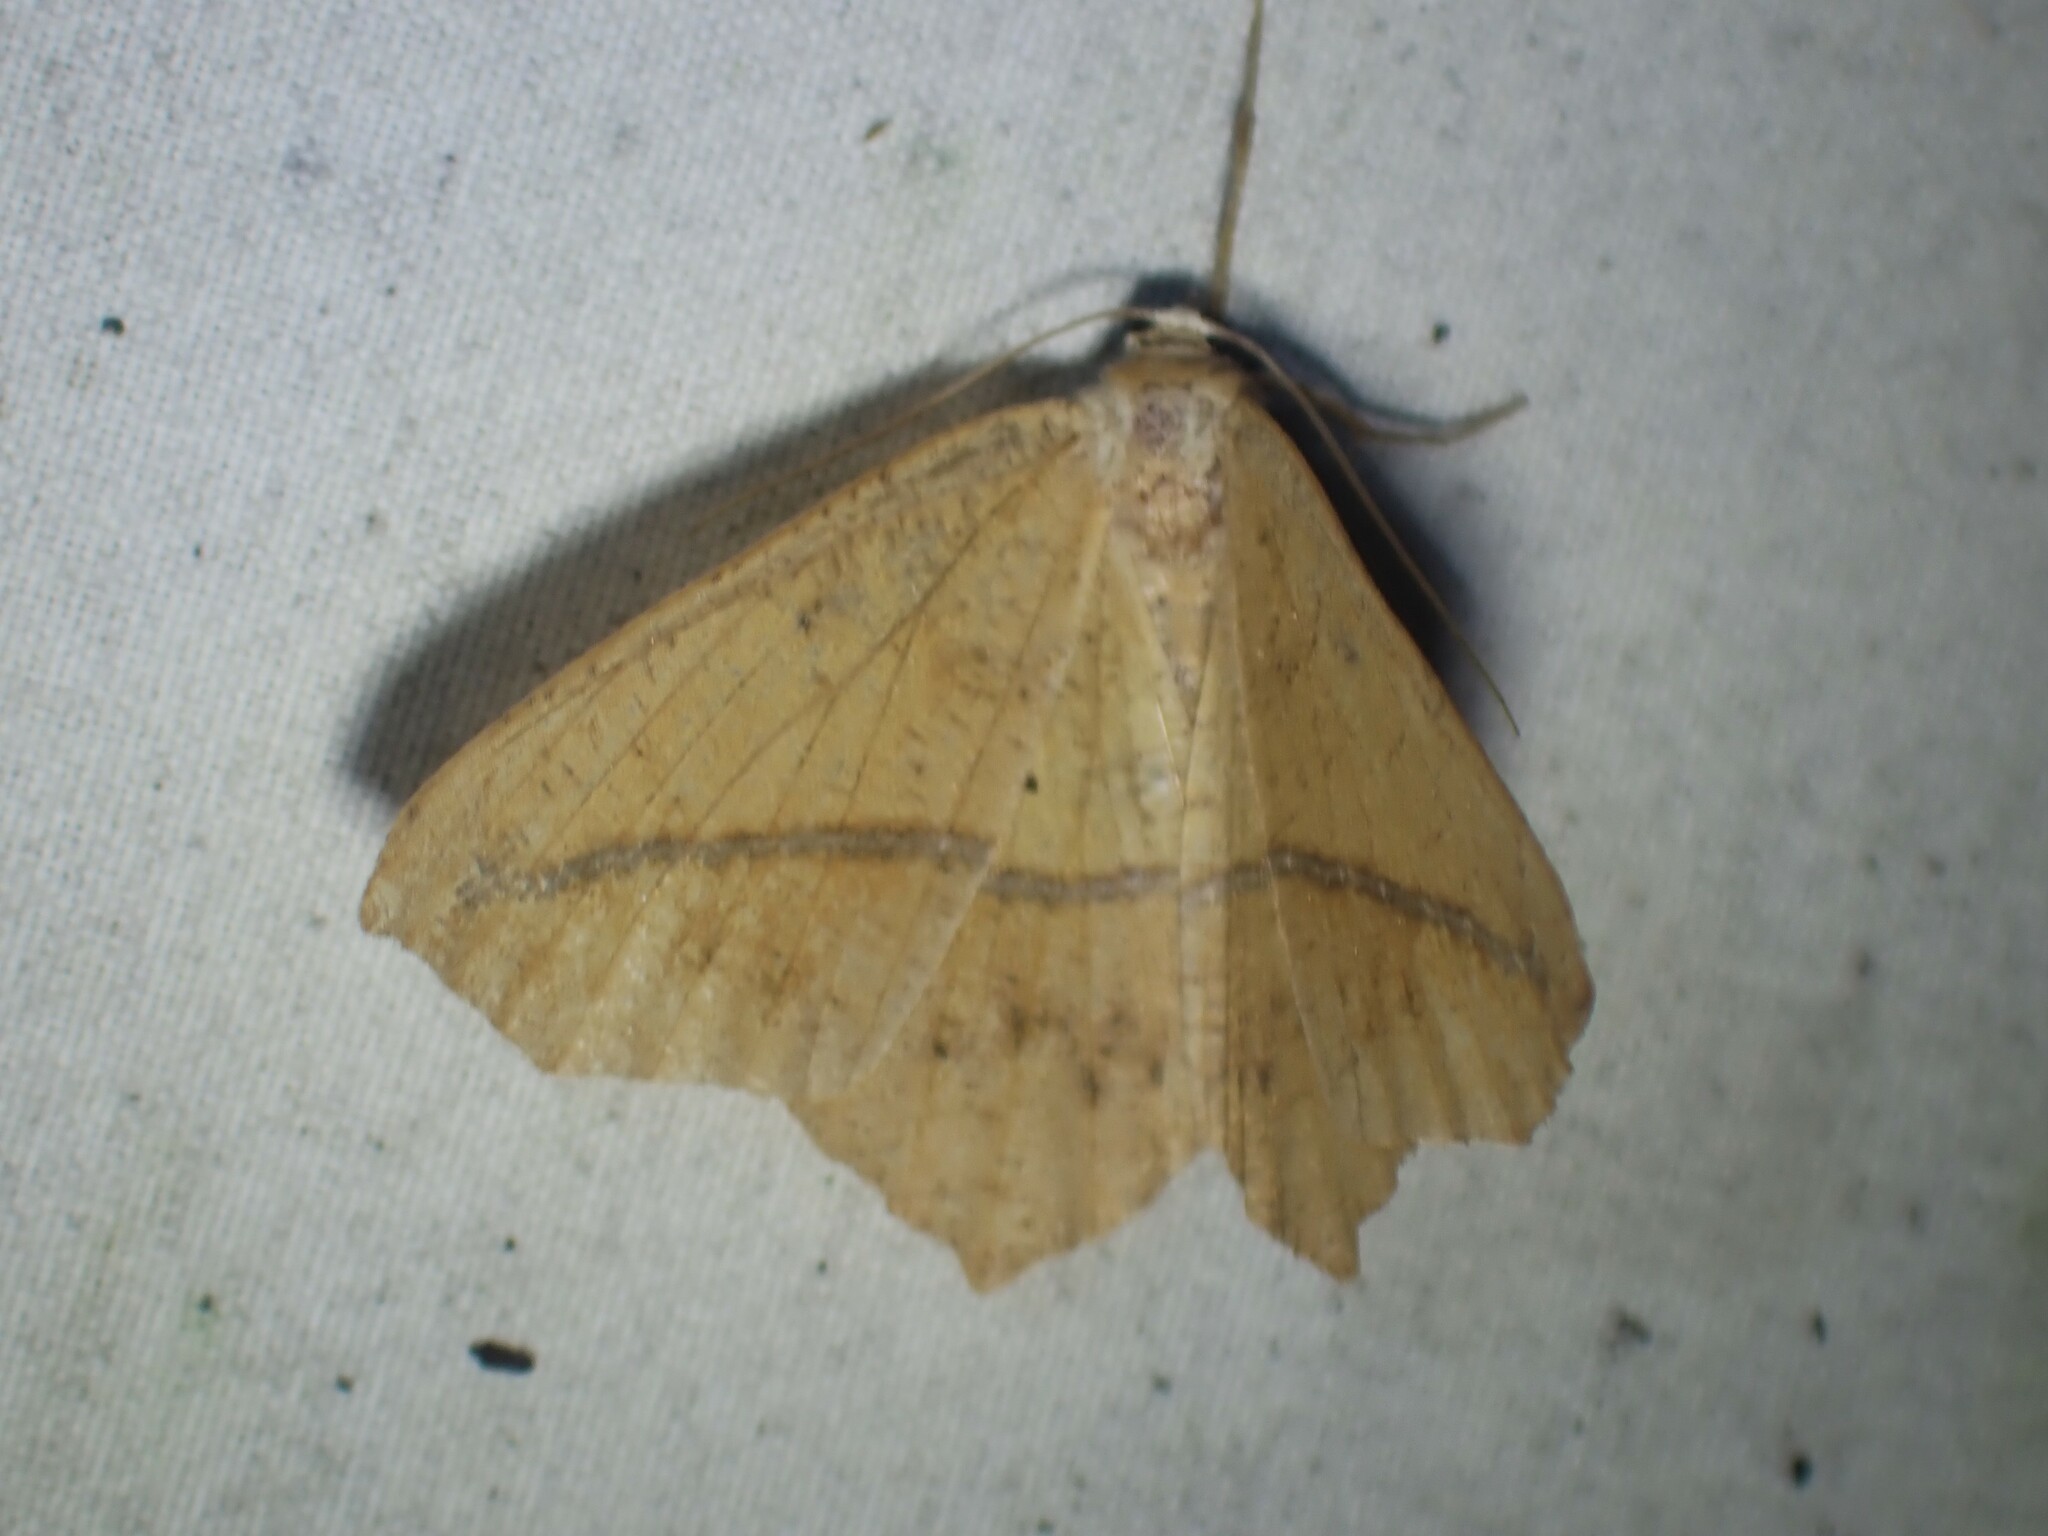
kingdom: Animalia
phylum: Arthropoda
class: Insecta
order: Lepidoptera
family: Geometridae
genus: Prochoerodes
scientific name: Prochoerodes lineola
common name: Large maple spanworm
